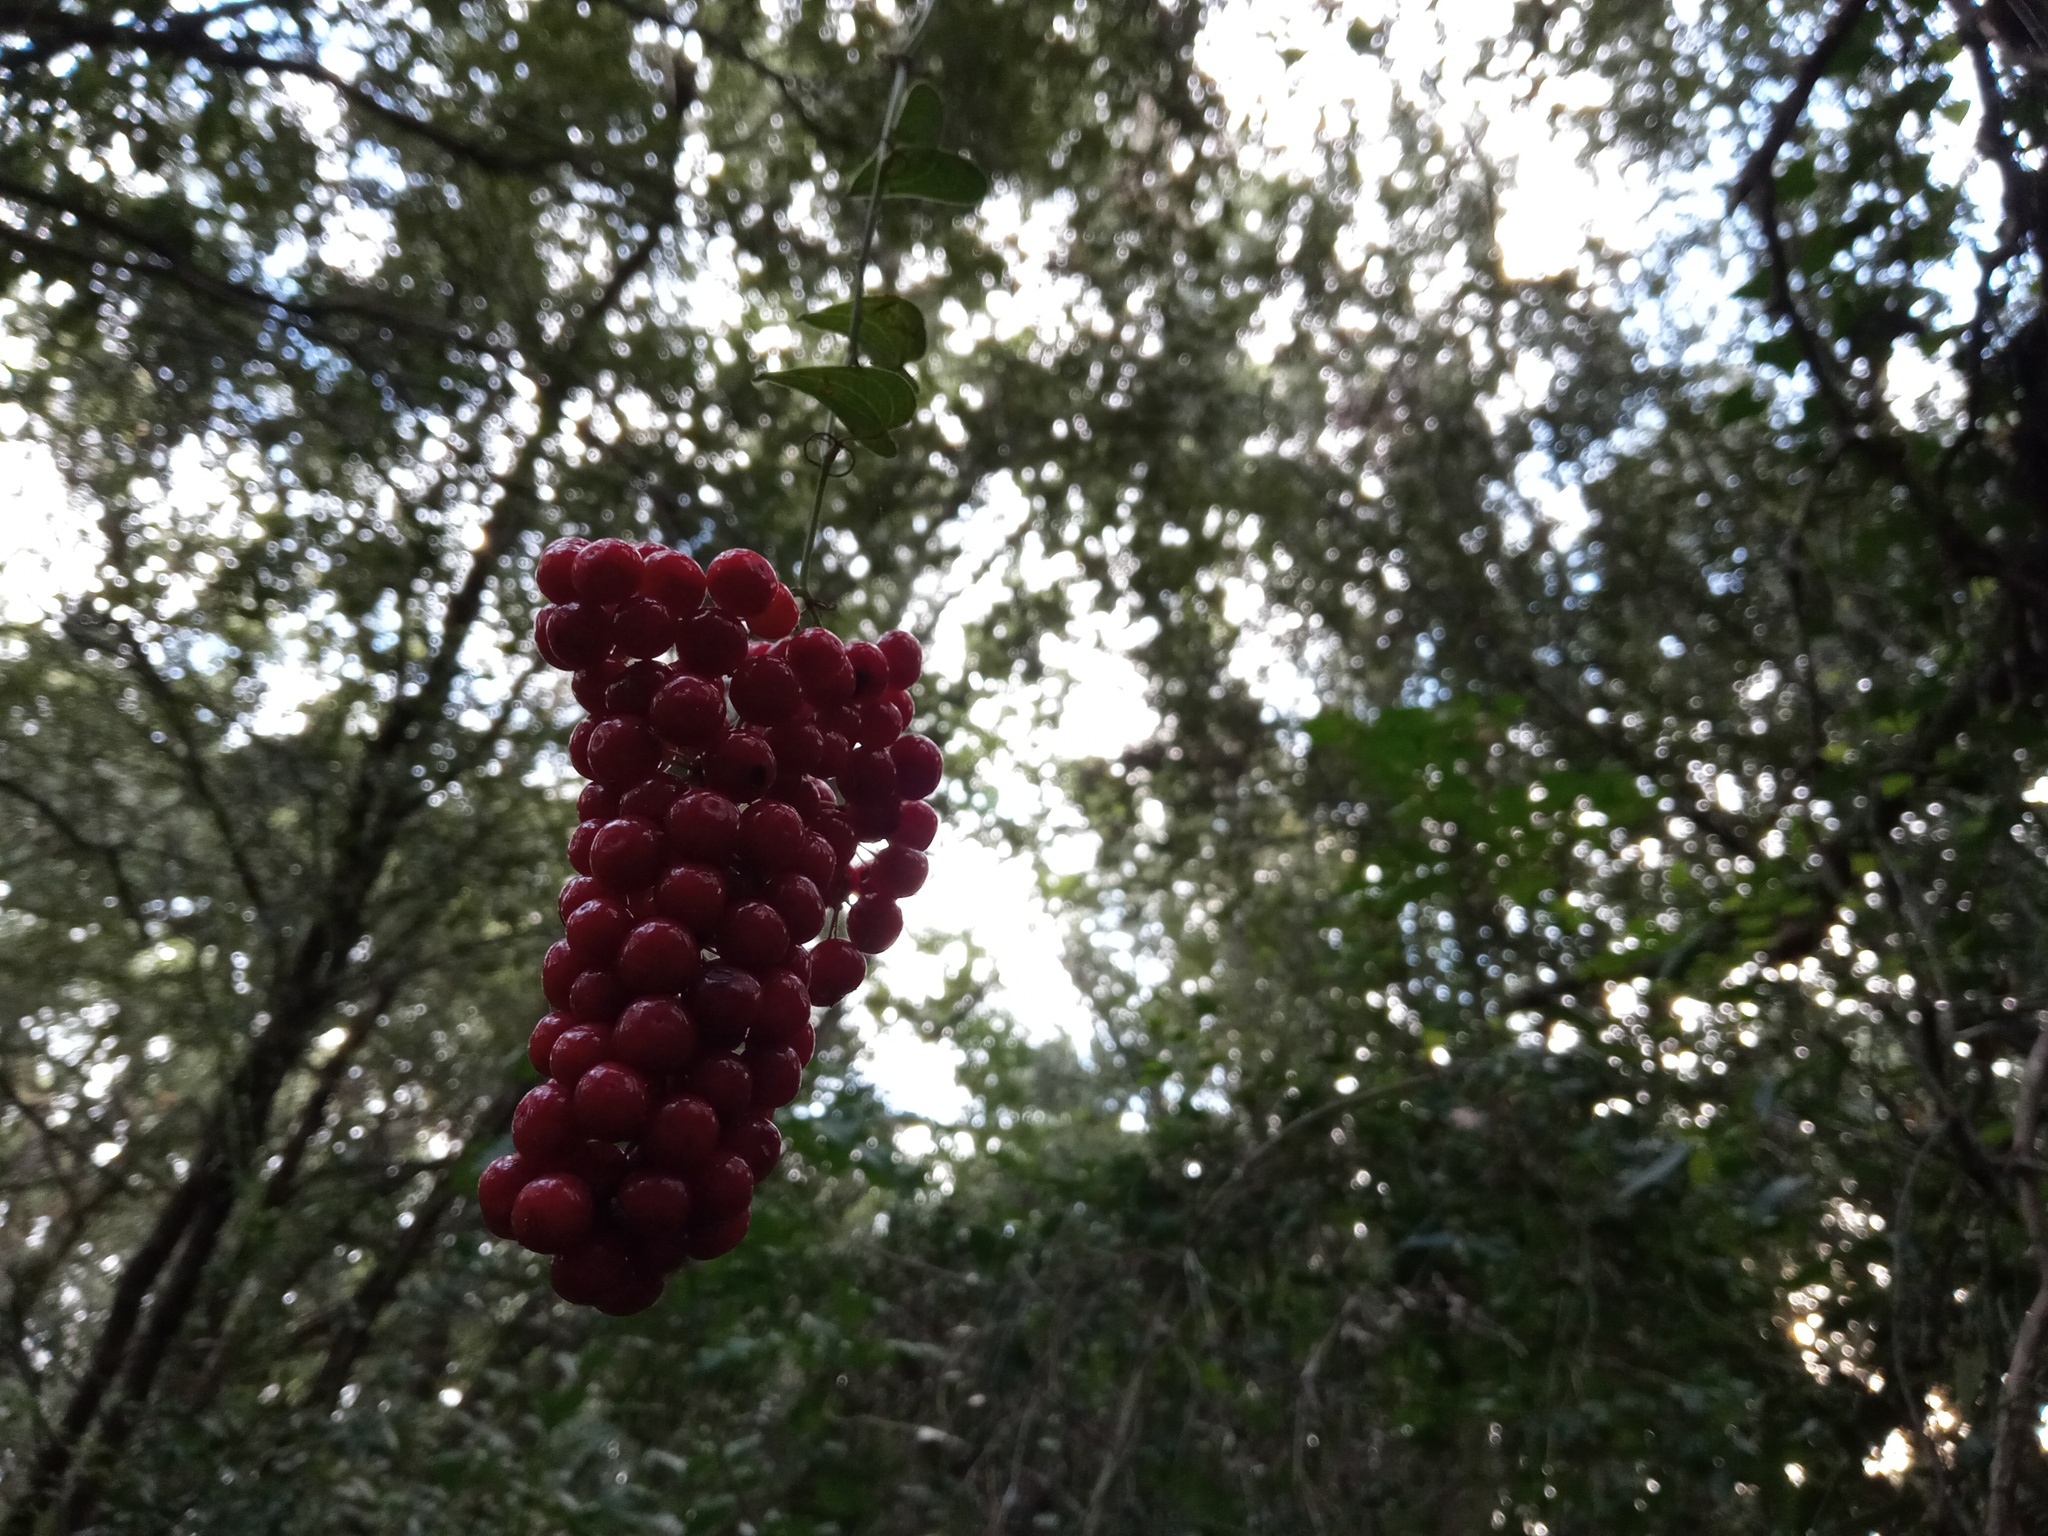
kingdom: Plantae
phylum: Tracheophyta
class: Liliopsida
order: Liliales
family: Smilacaceae
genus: Smilax
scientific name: Smilax aspera
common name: Common smilax
